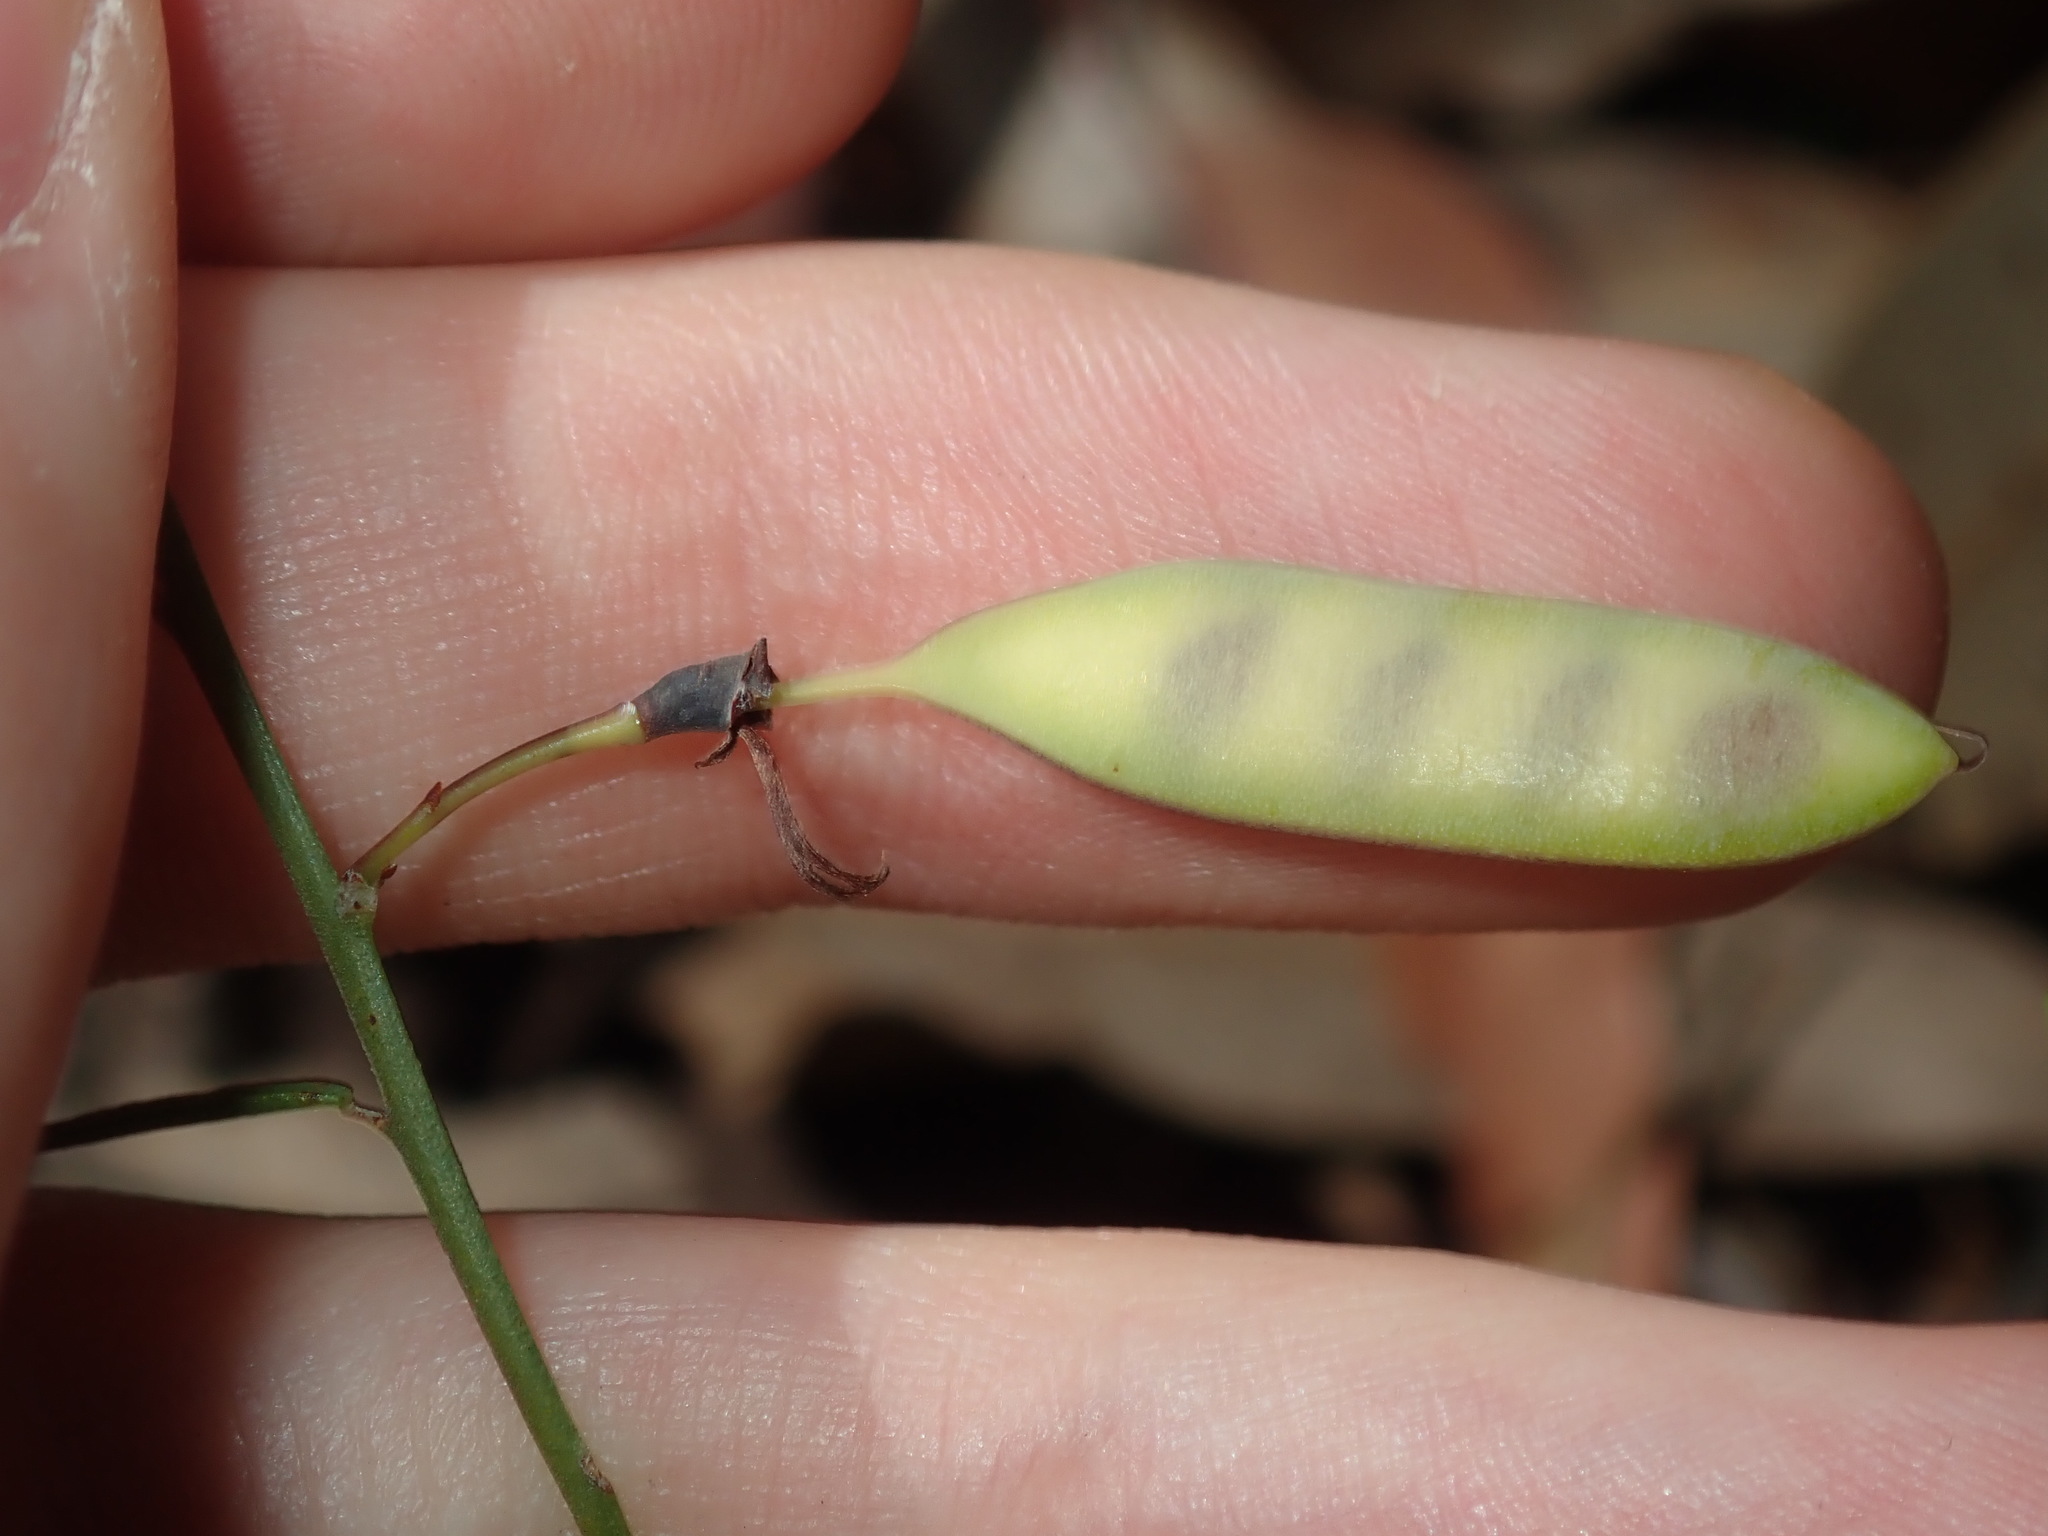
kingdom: Plantae
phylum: Tracheophyta
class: Magnoliopsida
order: Fabales
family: Fabaceae
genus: Bossiaea
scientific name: Bossiaea heterophylla
